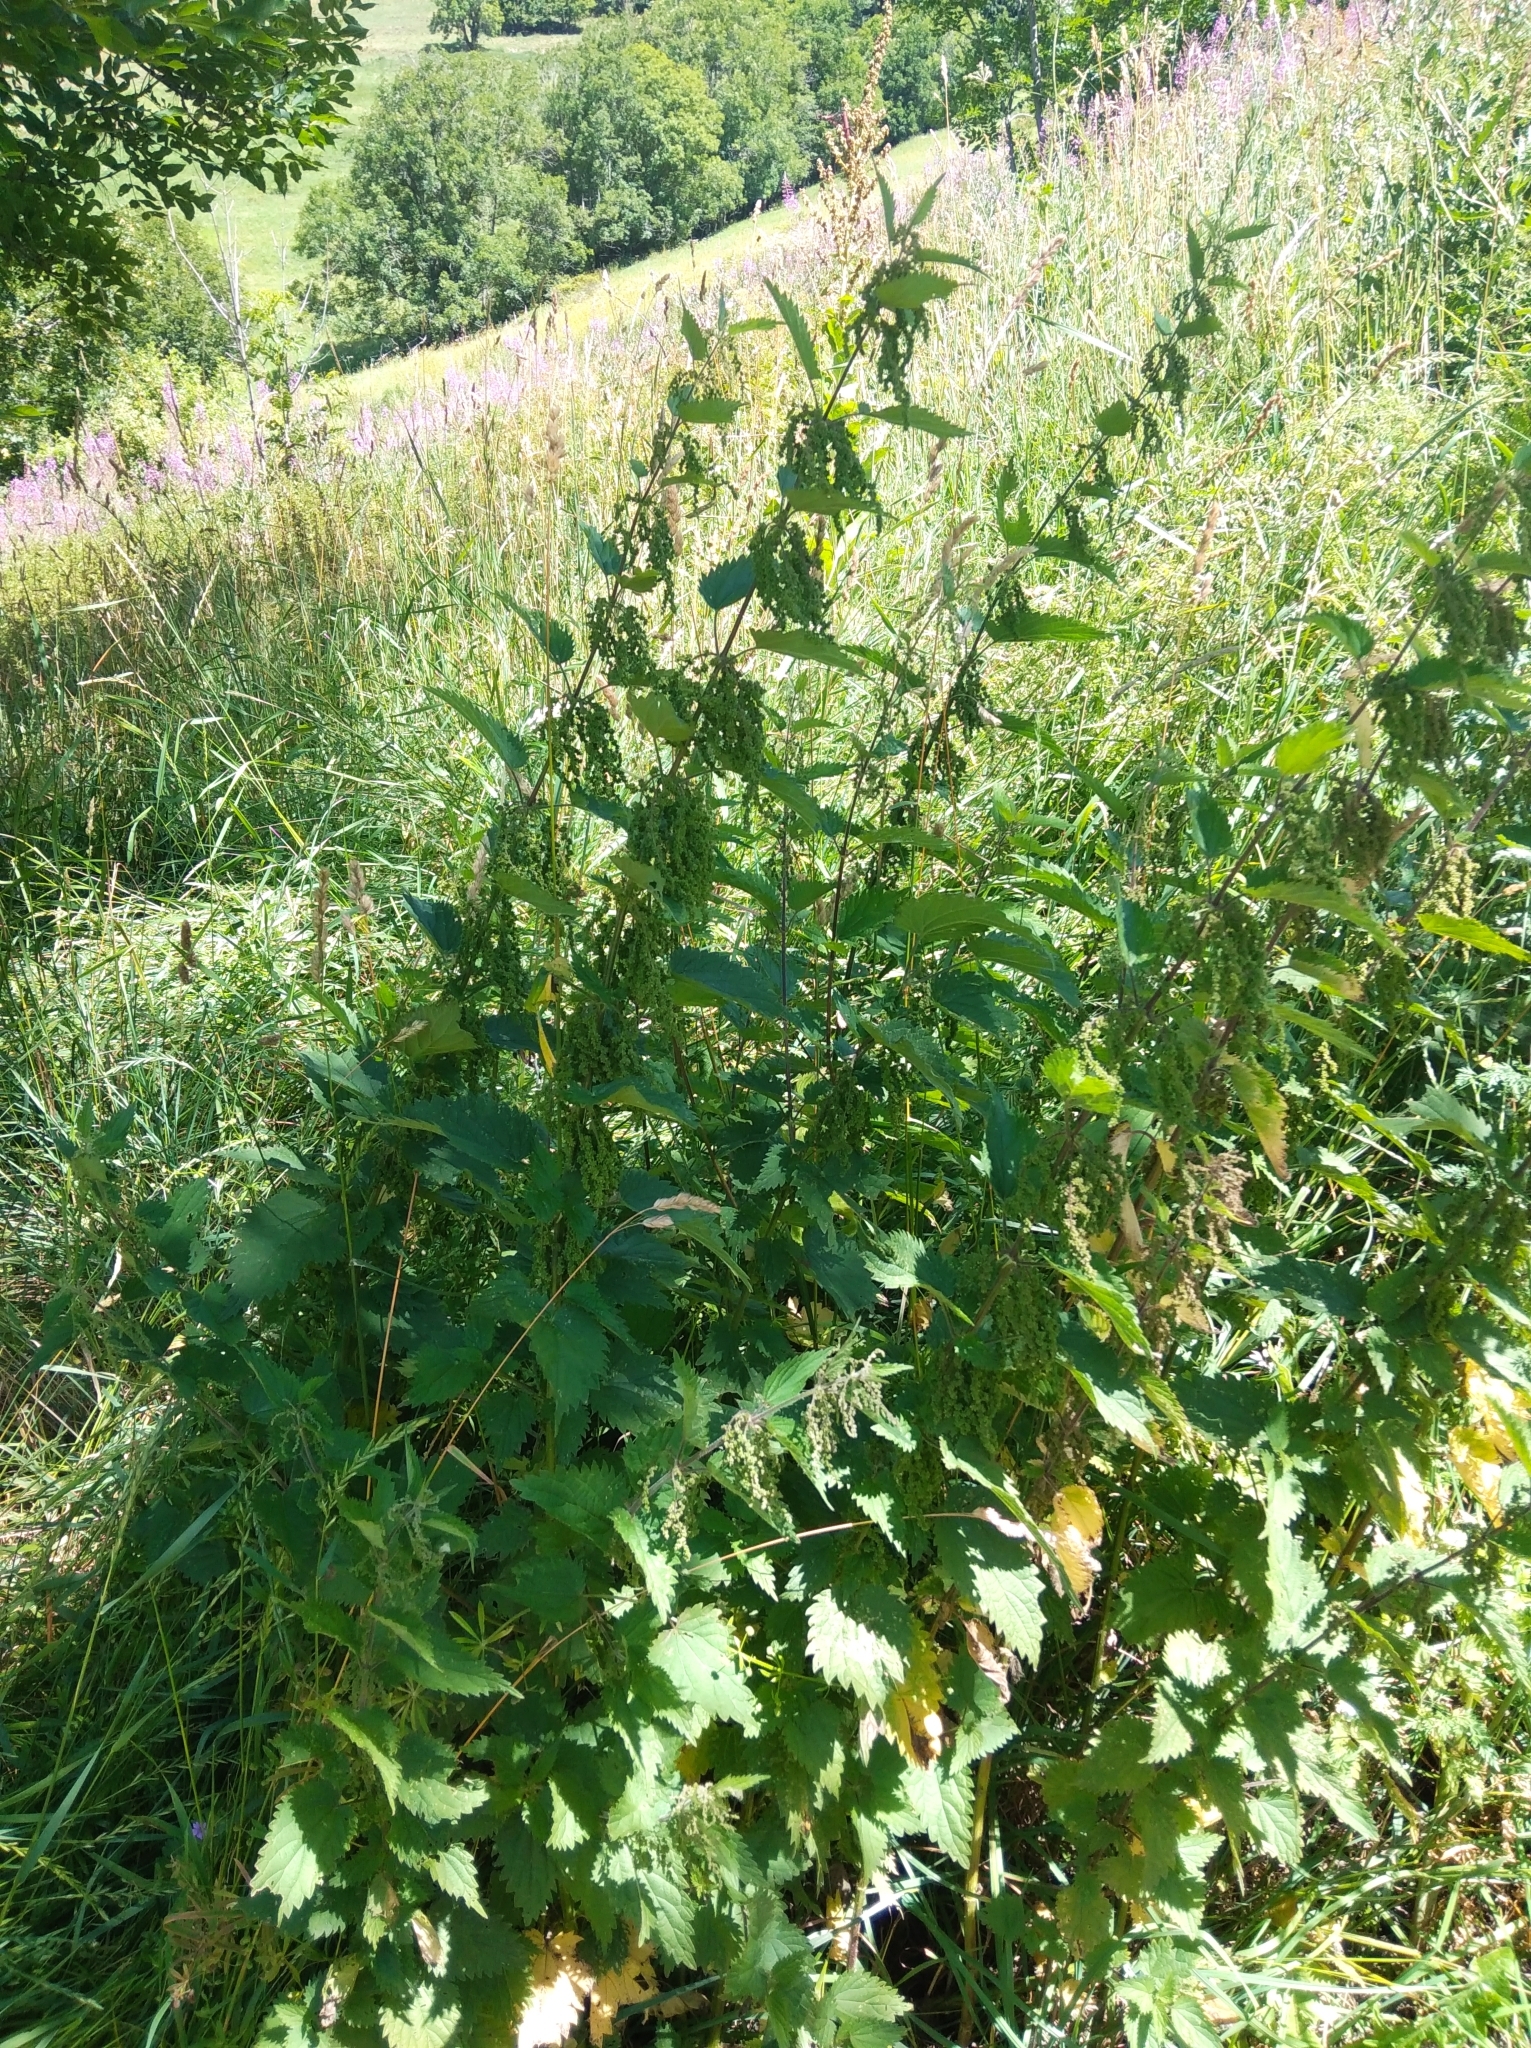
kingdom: Plantae
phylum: Tracheophyta
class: Magnoliopsida
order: Rosales
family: Urticaceae
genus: Urtica
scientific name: Urtica dioica
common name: Common nettle
